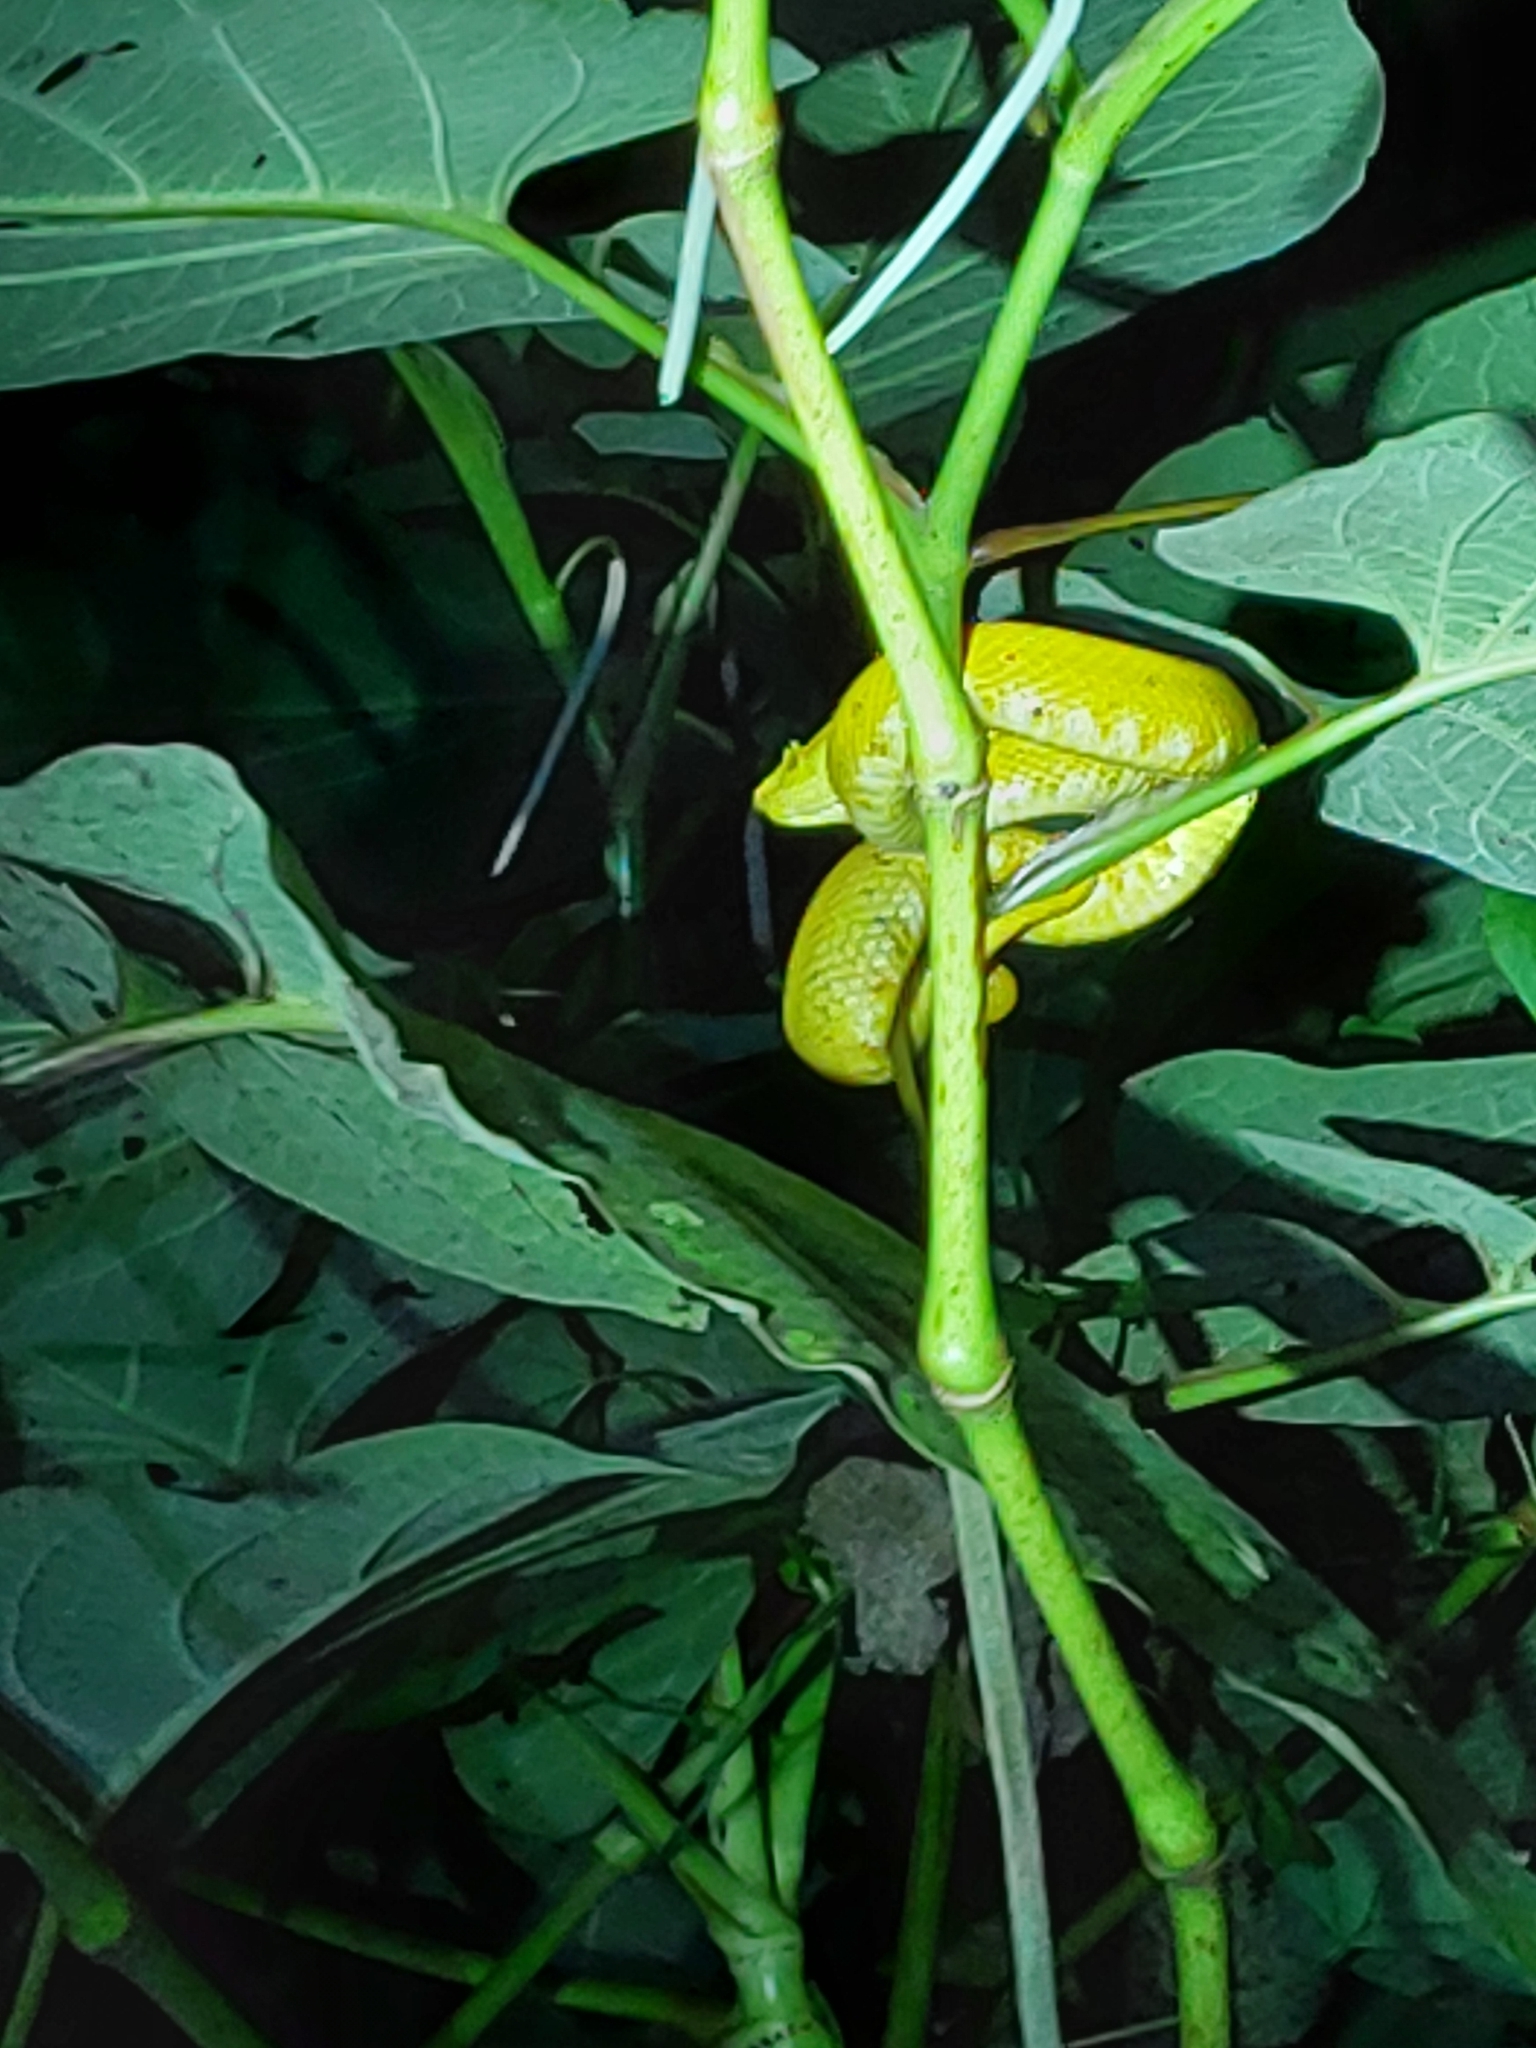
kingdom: Animalia
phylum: Chordata
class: Squamata
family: Viperidae
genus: Bothriechis
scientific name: Bothriechis schlegelii
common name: Eyelash viper
